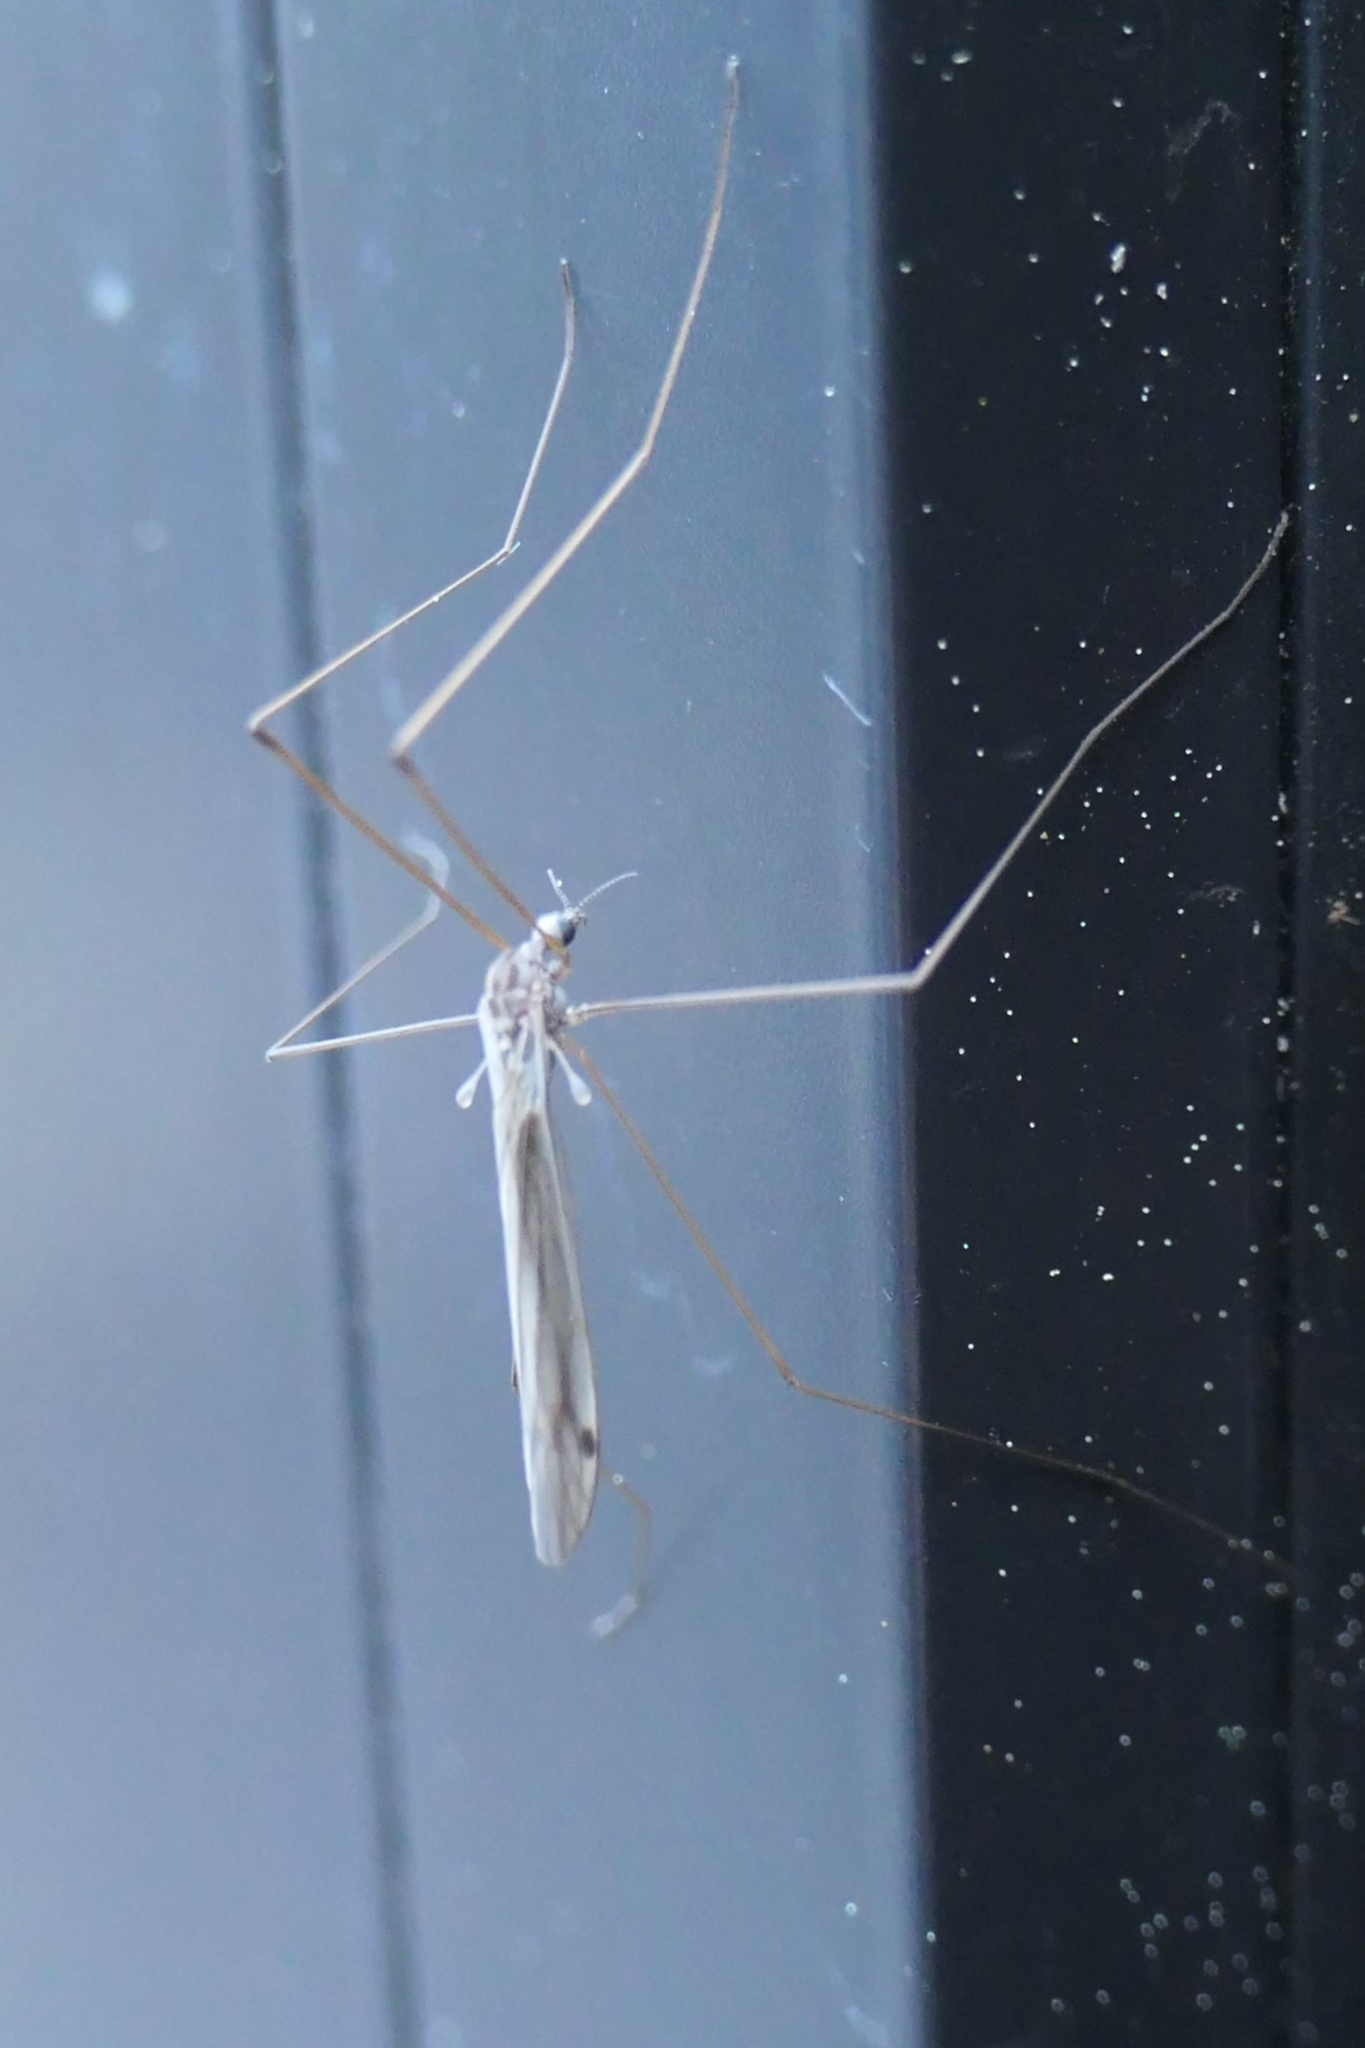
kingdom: Animalia
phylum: Arthropoda
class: Insecta
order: Diptera
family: Limoniidae
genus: Dicranomyia
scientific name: Dicranomyia aegrotans
